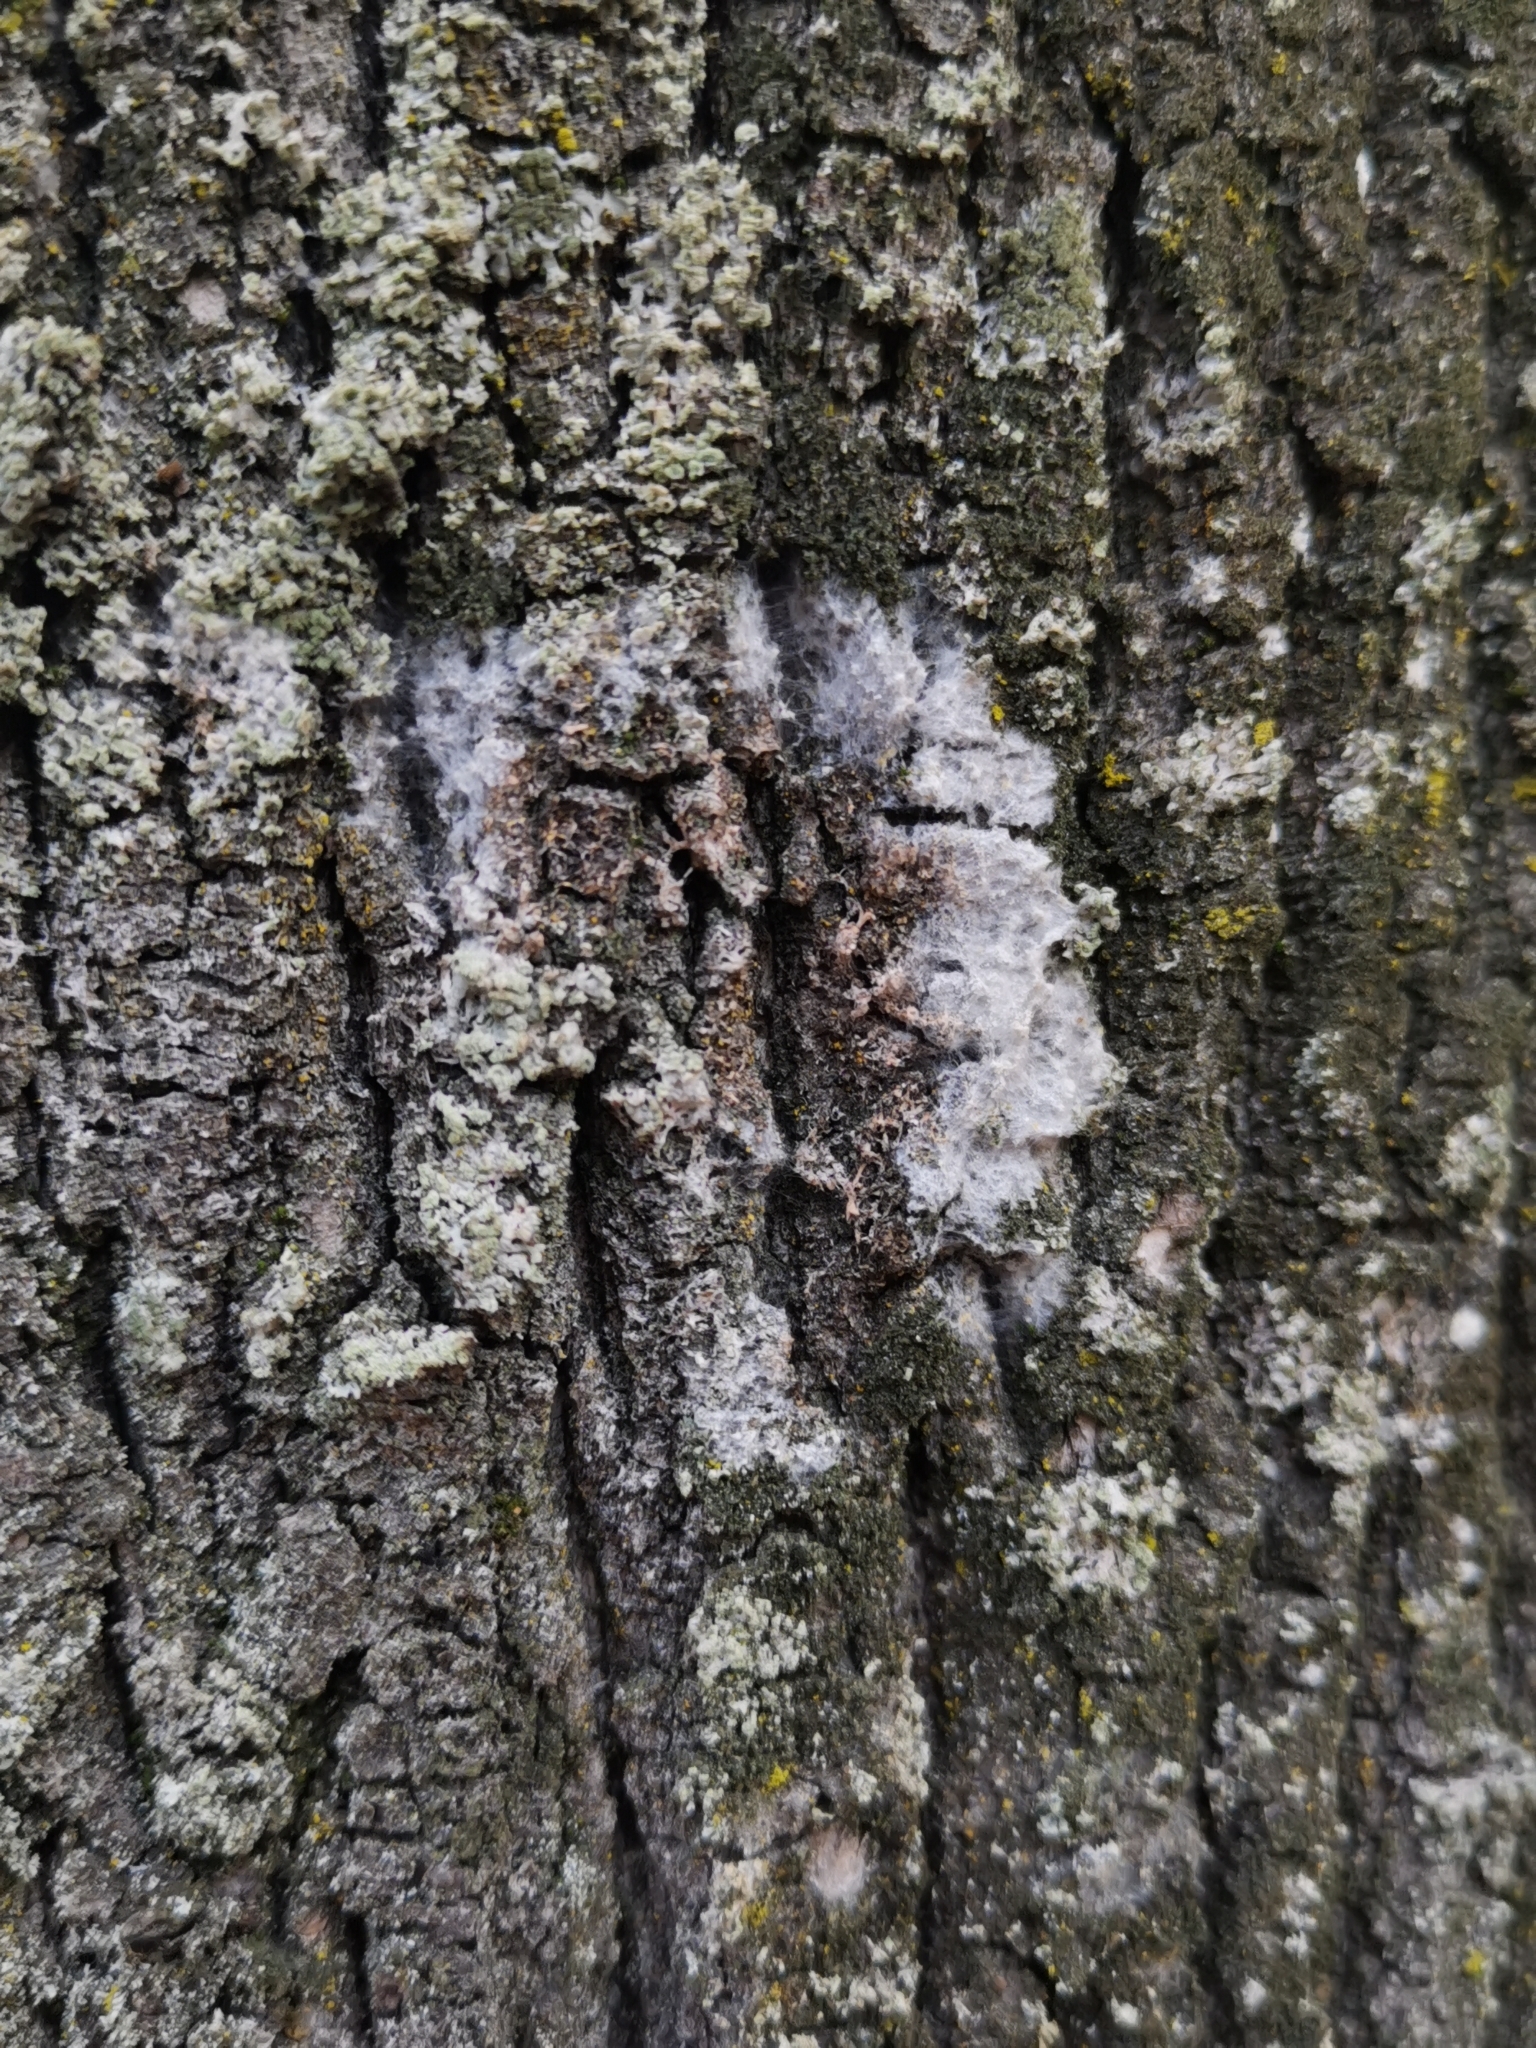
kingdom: Fungi
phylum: Basidiomycota
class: Agaricomycetes
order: Atheliales
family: Atheliaceae
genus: Athelia
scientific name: Athelia arachnoidea
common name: Candelabra duster
